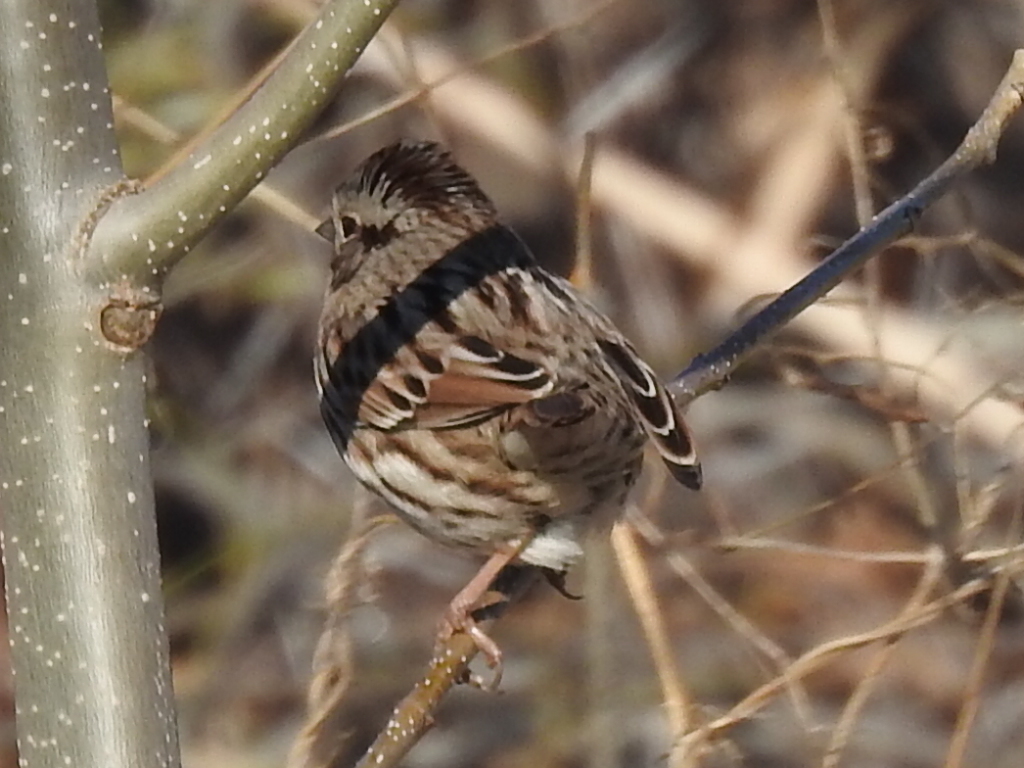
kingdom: Animalia
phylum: Chordata
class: Aves
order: Passeriformes
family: Passerellidae
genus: Melospiza
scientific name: Melospiza melodia
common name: Song sparrow
